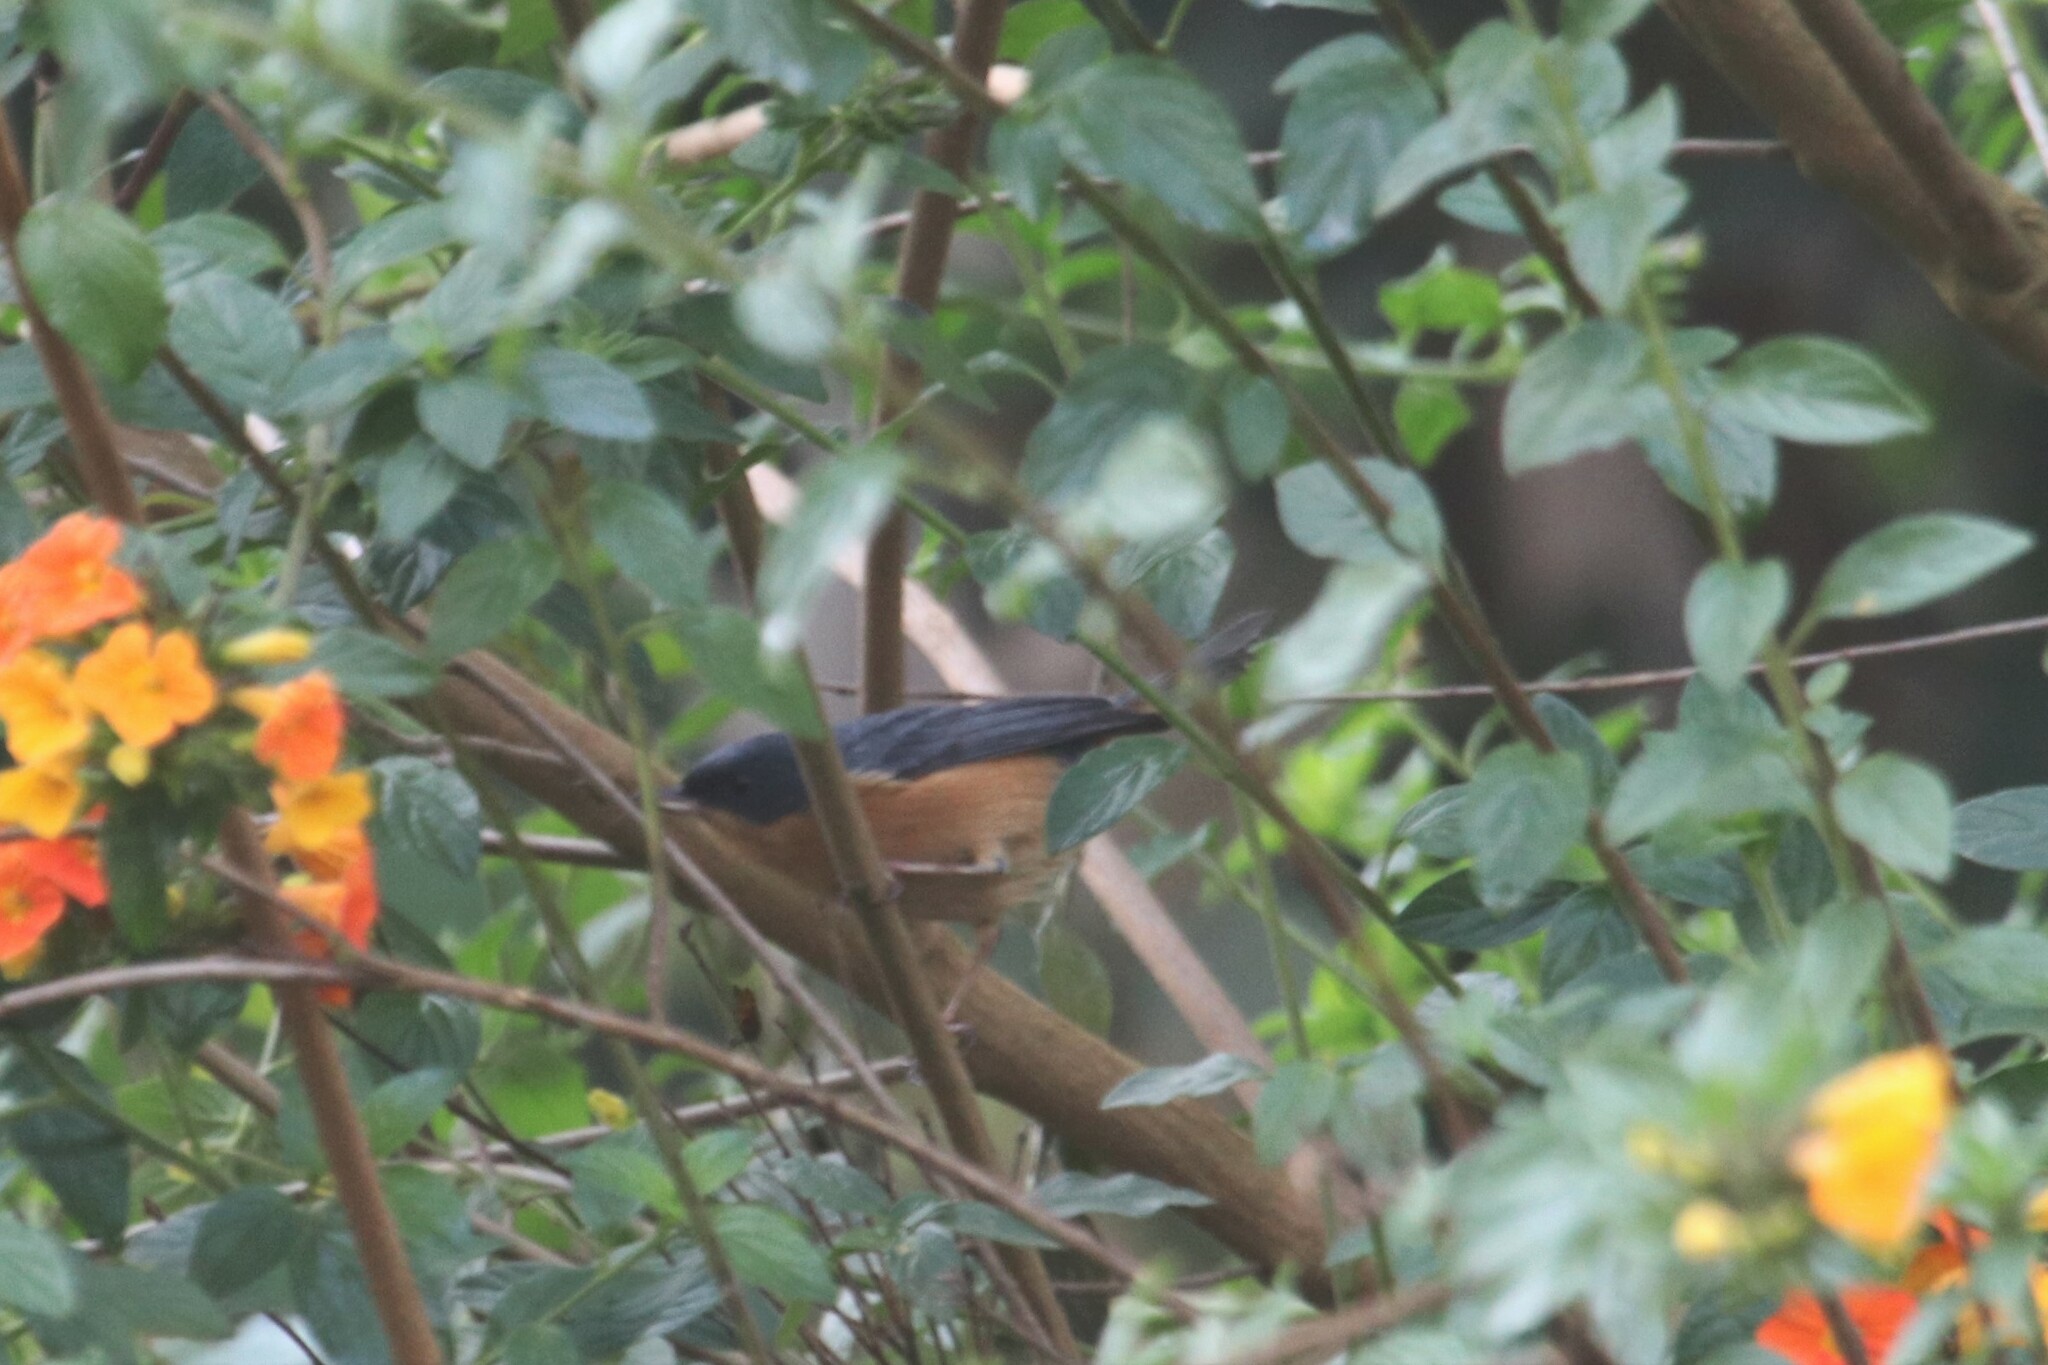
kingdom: Animalia
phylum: Chordata
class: Aves
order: Passeriformes
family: Thraupidae
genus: Diglossa
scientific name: Diglossa sittoides
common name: Rusty flowerpiercer
